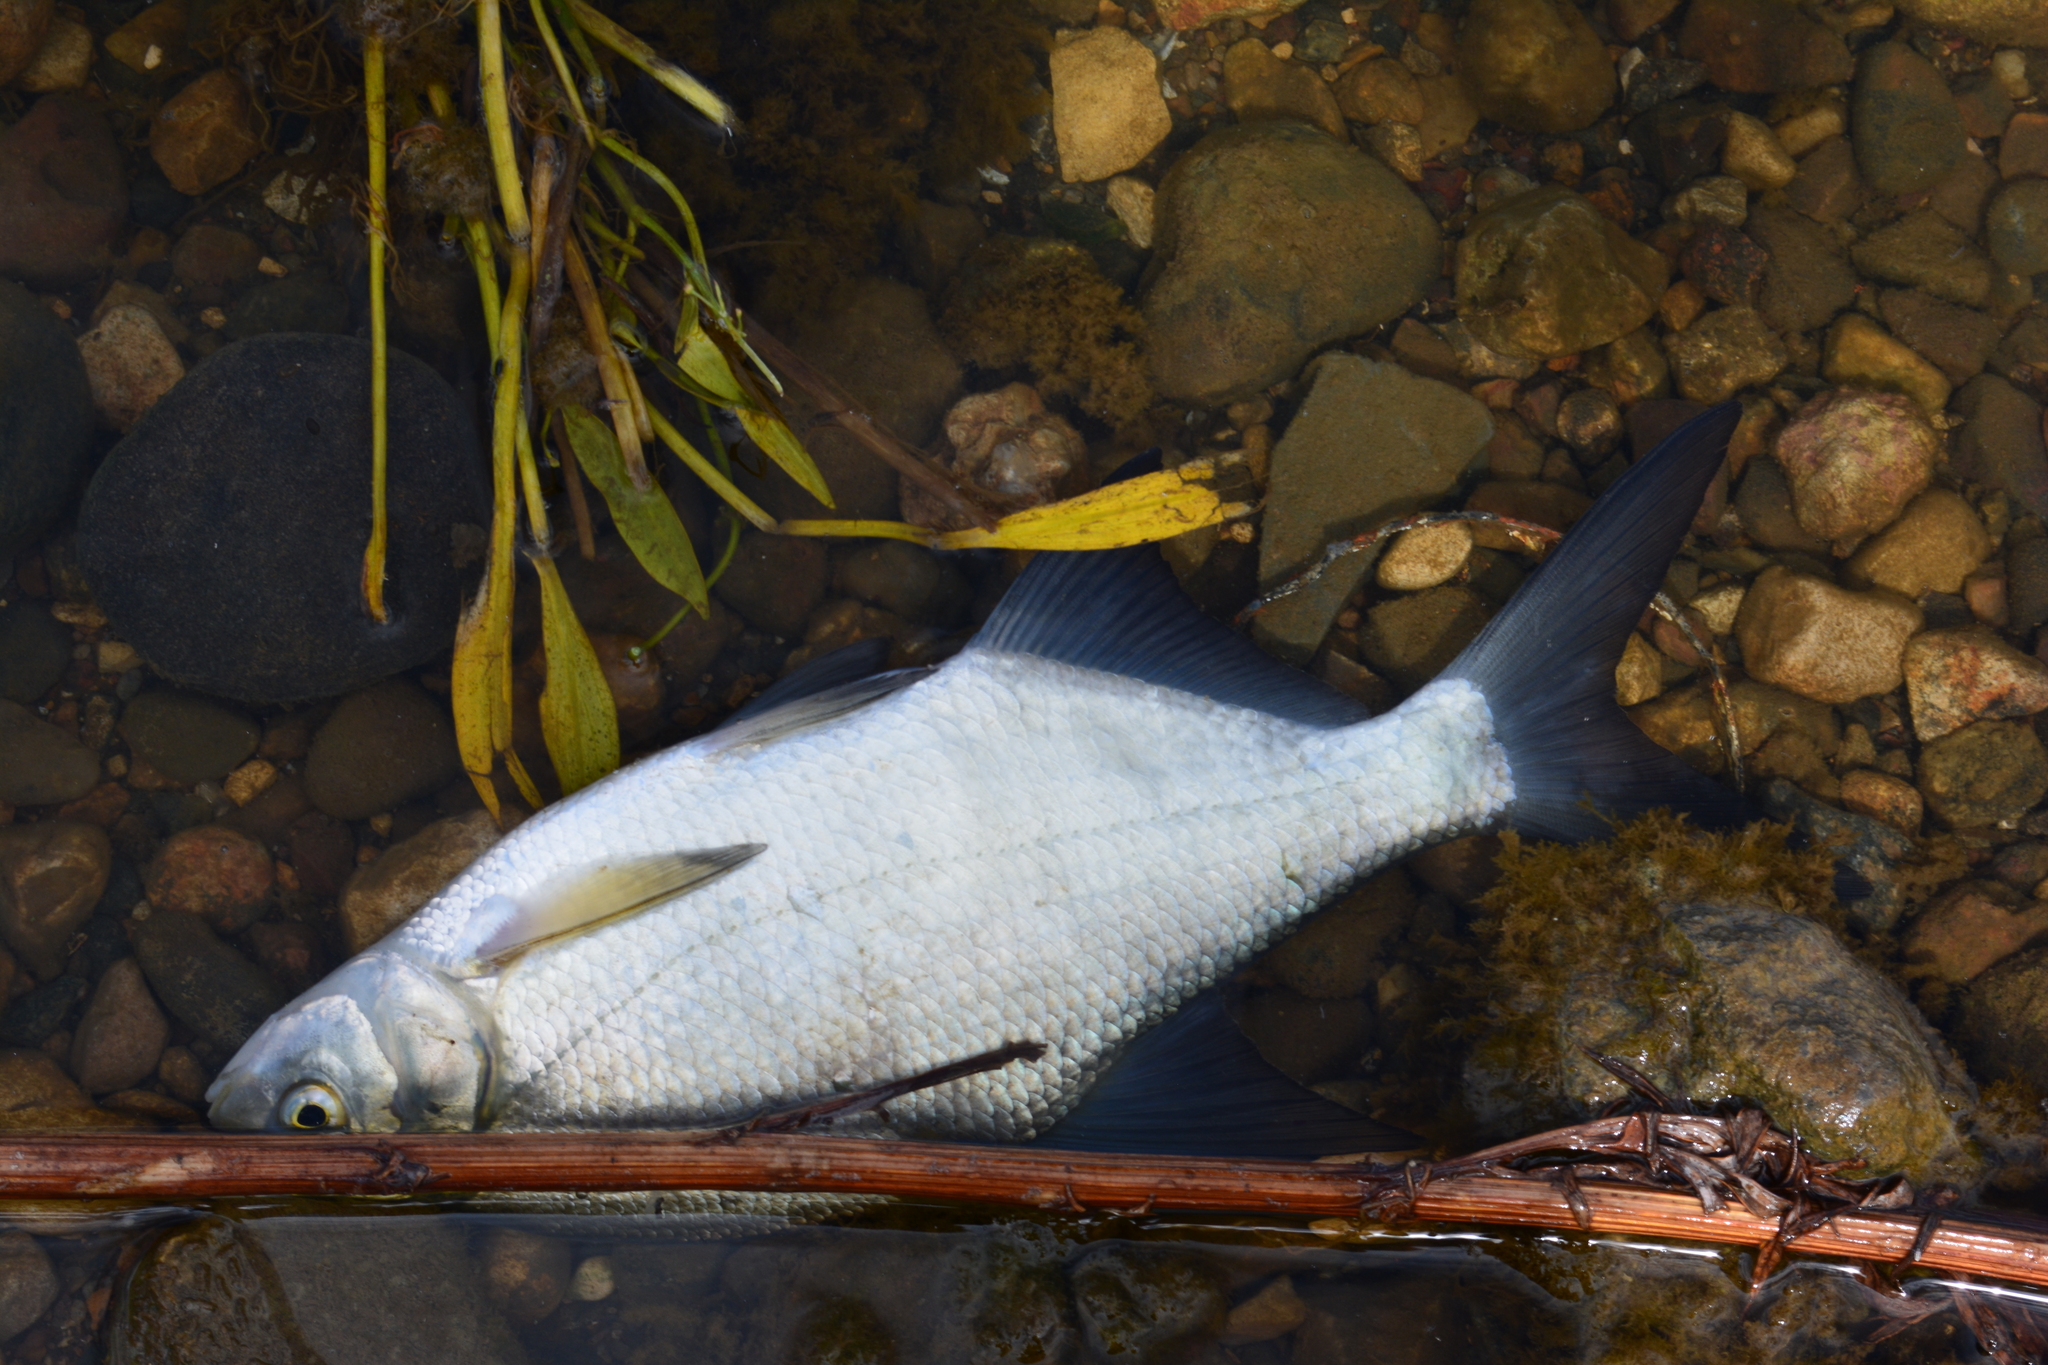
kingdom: Animalia
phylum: Chordata
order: Cypriniformes
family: Cyprinidae
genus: Abramis
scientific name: Abramis brama
